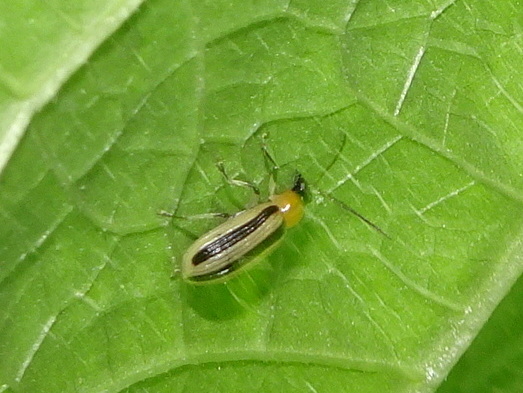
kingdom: Animalia
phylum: Arthropoda
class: Insecta
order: Coleoptera
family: Chrysomelidae
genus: Acalymma
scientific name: Acalymma vittatum
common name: Striped cucumber beetle
